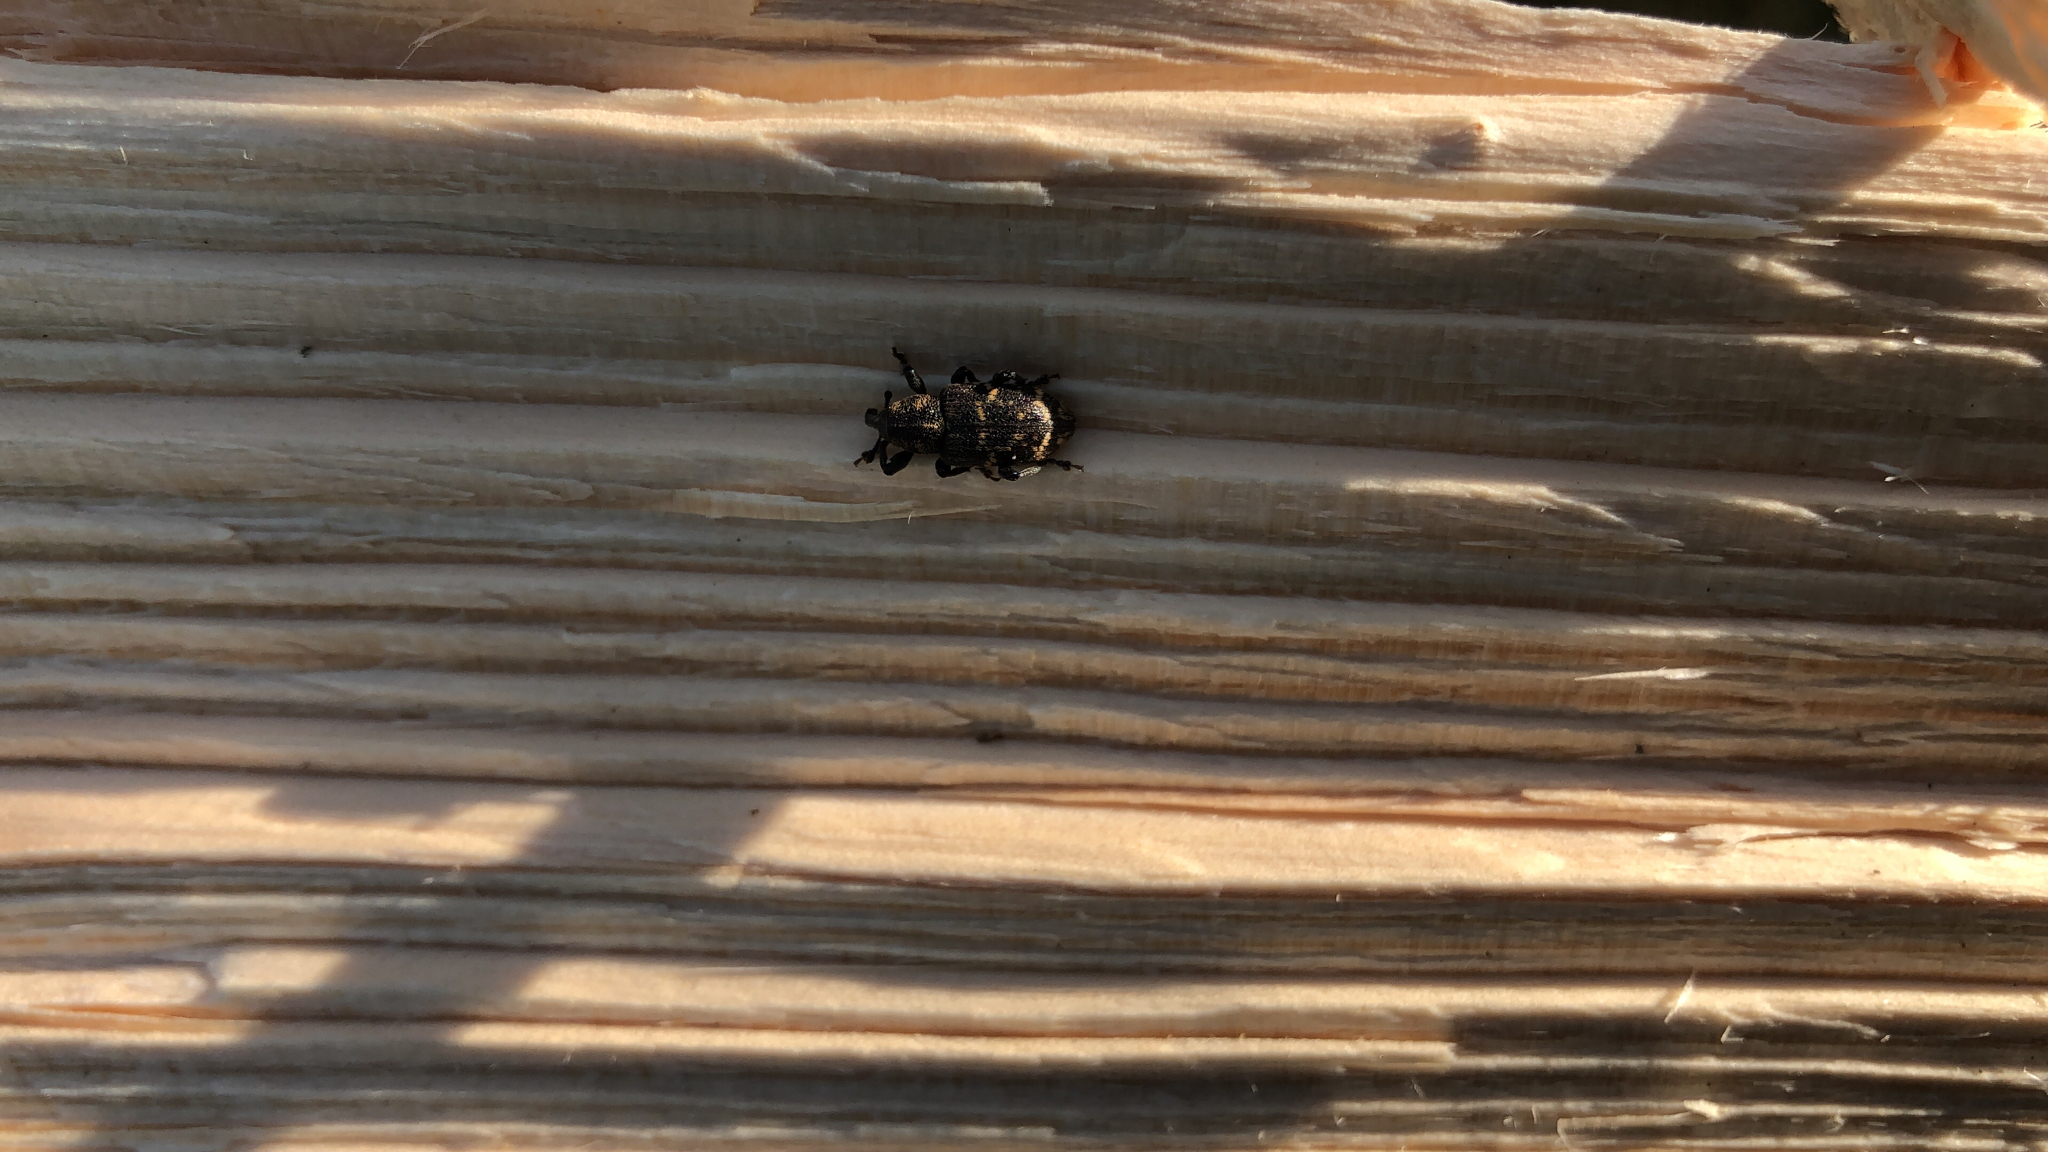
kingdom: Animalia
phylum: Arthropoda
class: Insecta
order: Coleoptera
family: Curculionidae
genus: Hylobius
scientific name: Hylobius abietis
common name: Large pine weevil
